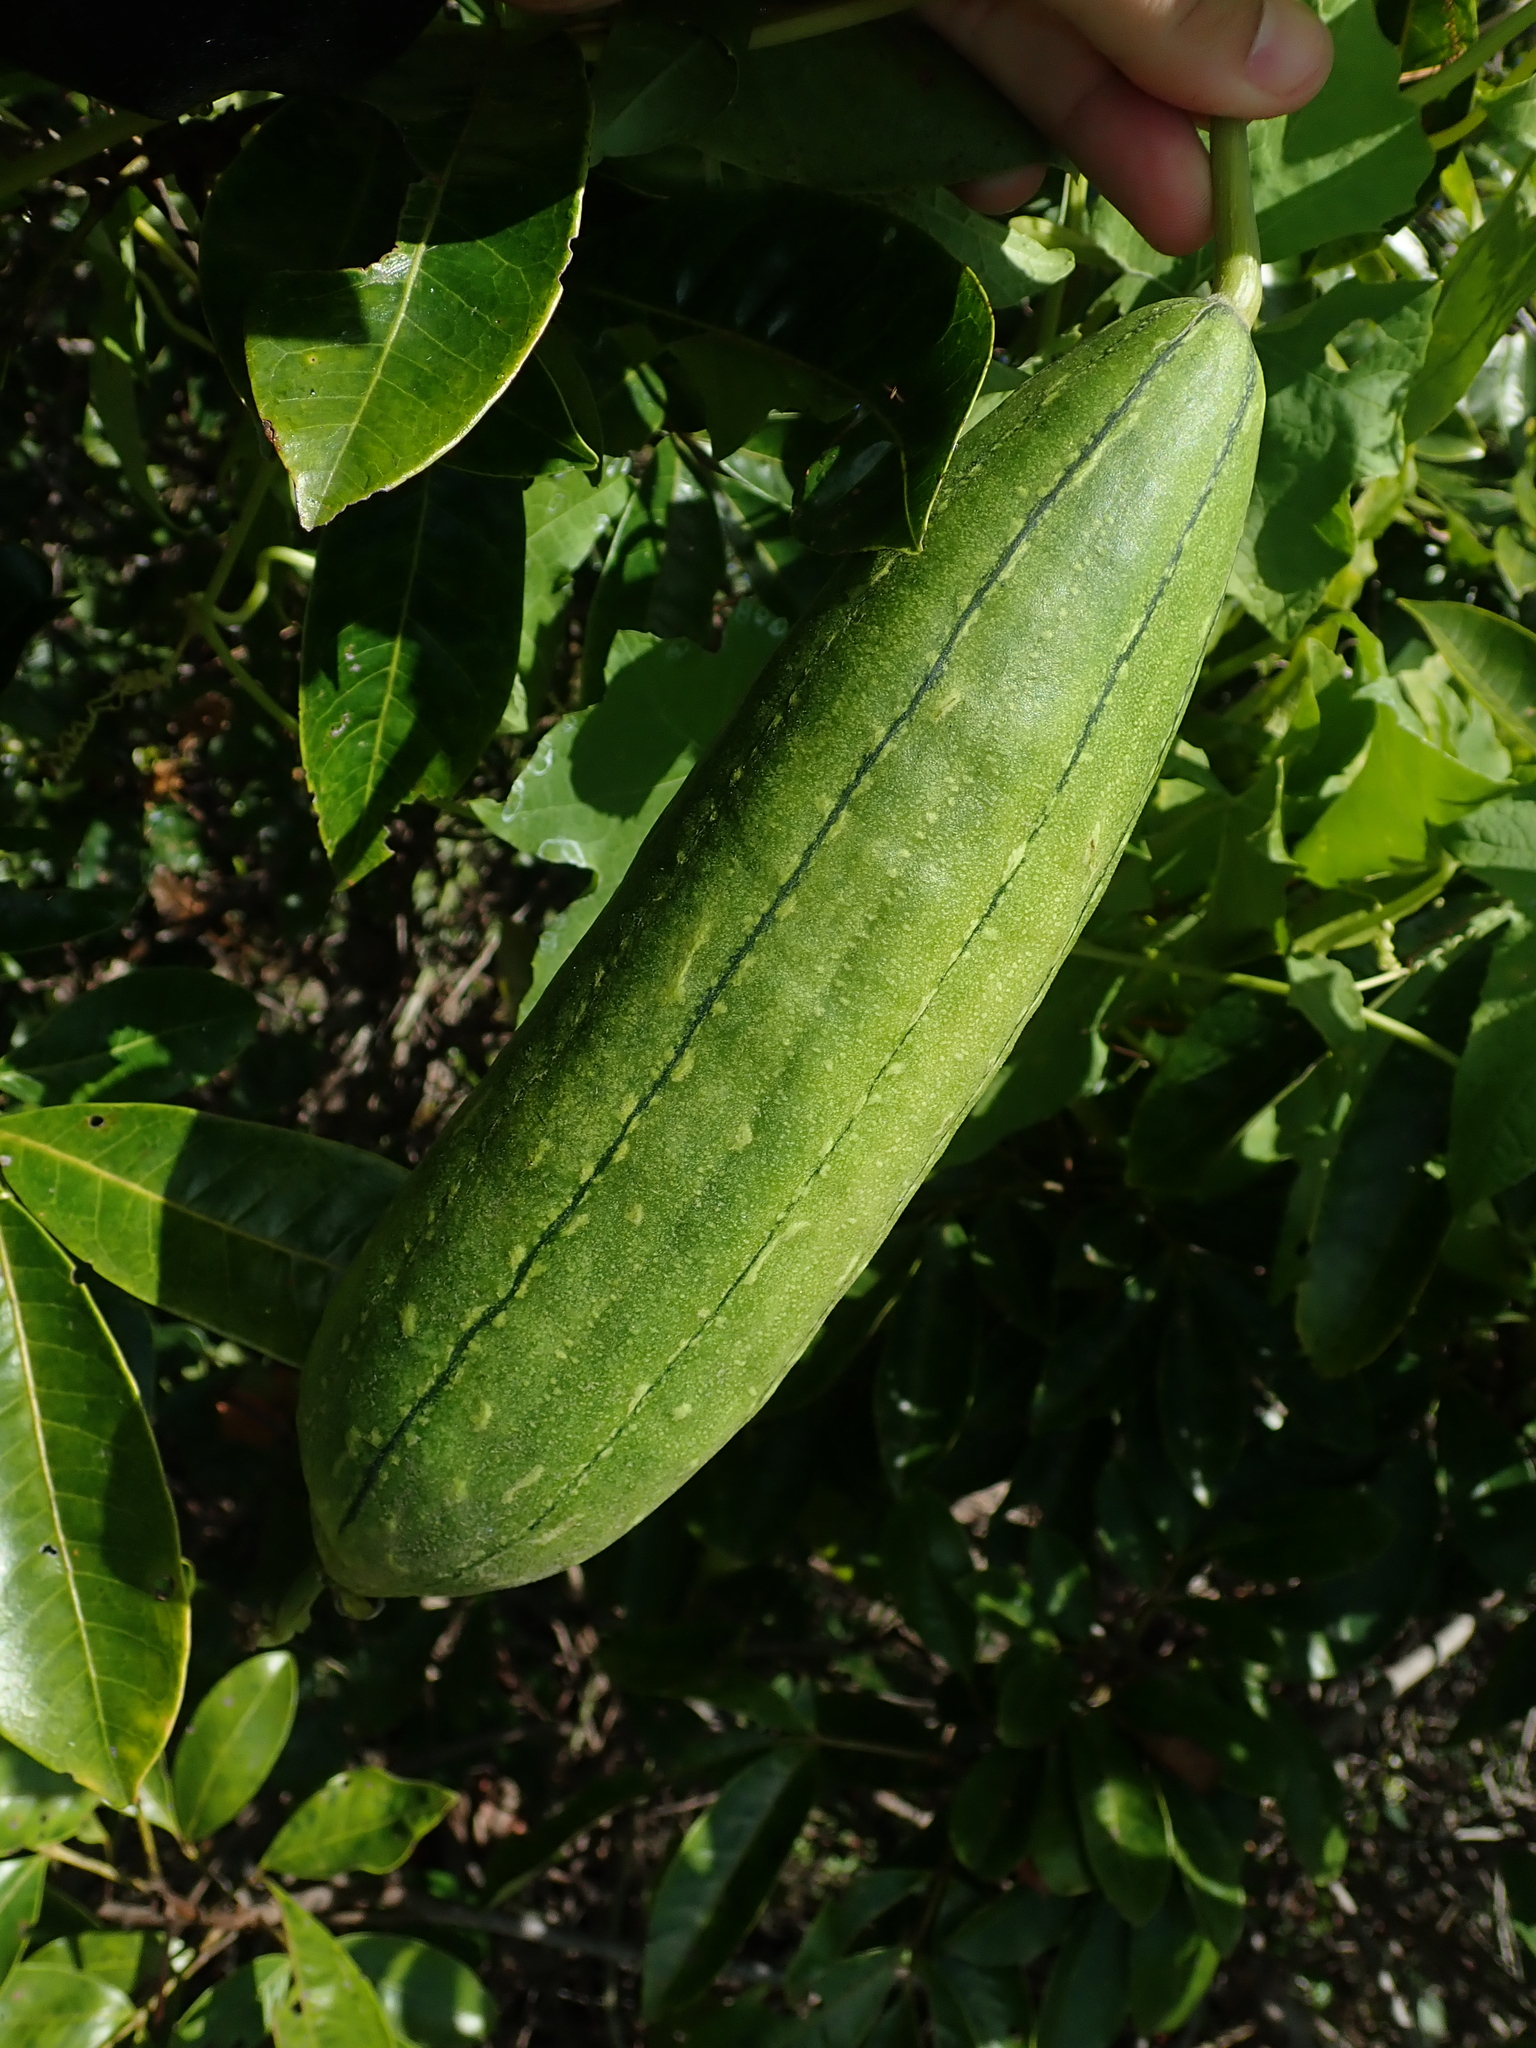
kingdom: Plantae
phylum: Tracheophyta
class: Magnoliopsida
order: Cucurbitales
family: Cucurbitaceae
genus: Luffa
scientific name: Luffa aegyptiaca
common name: Sponge gourd
